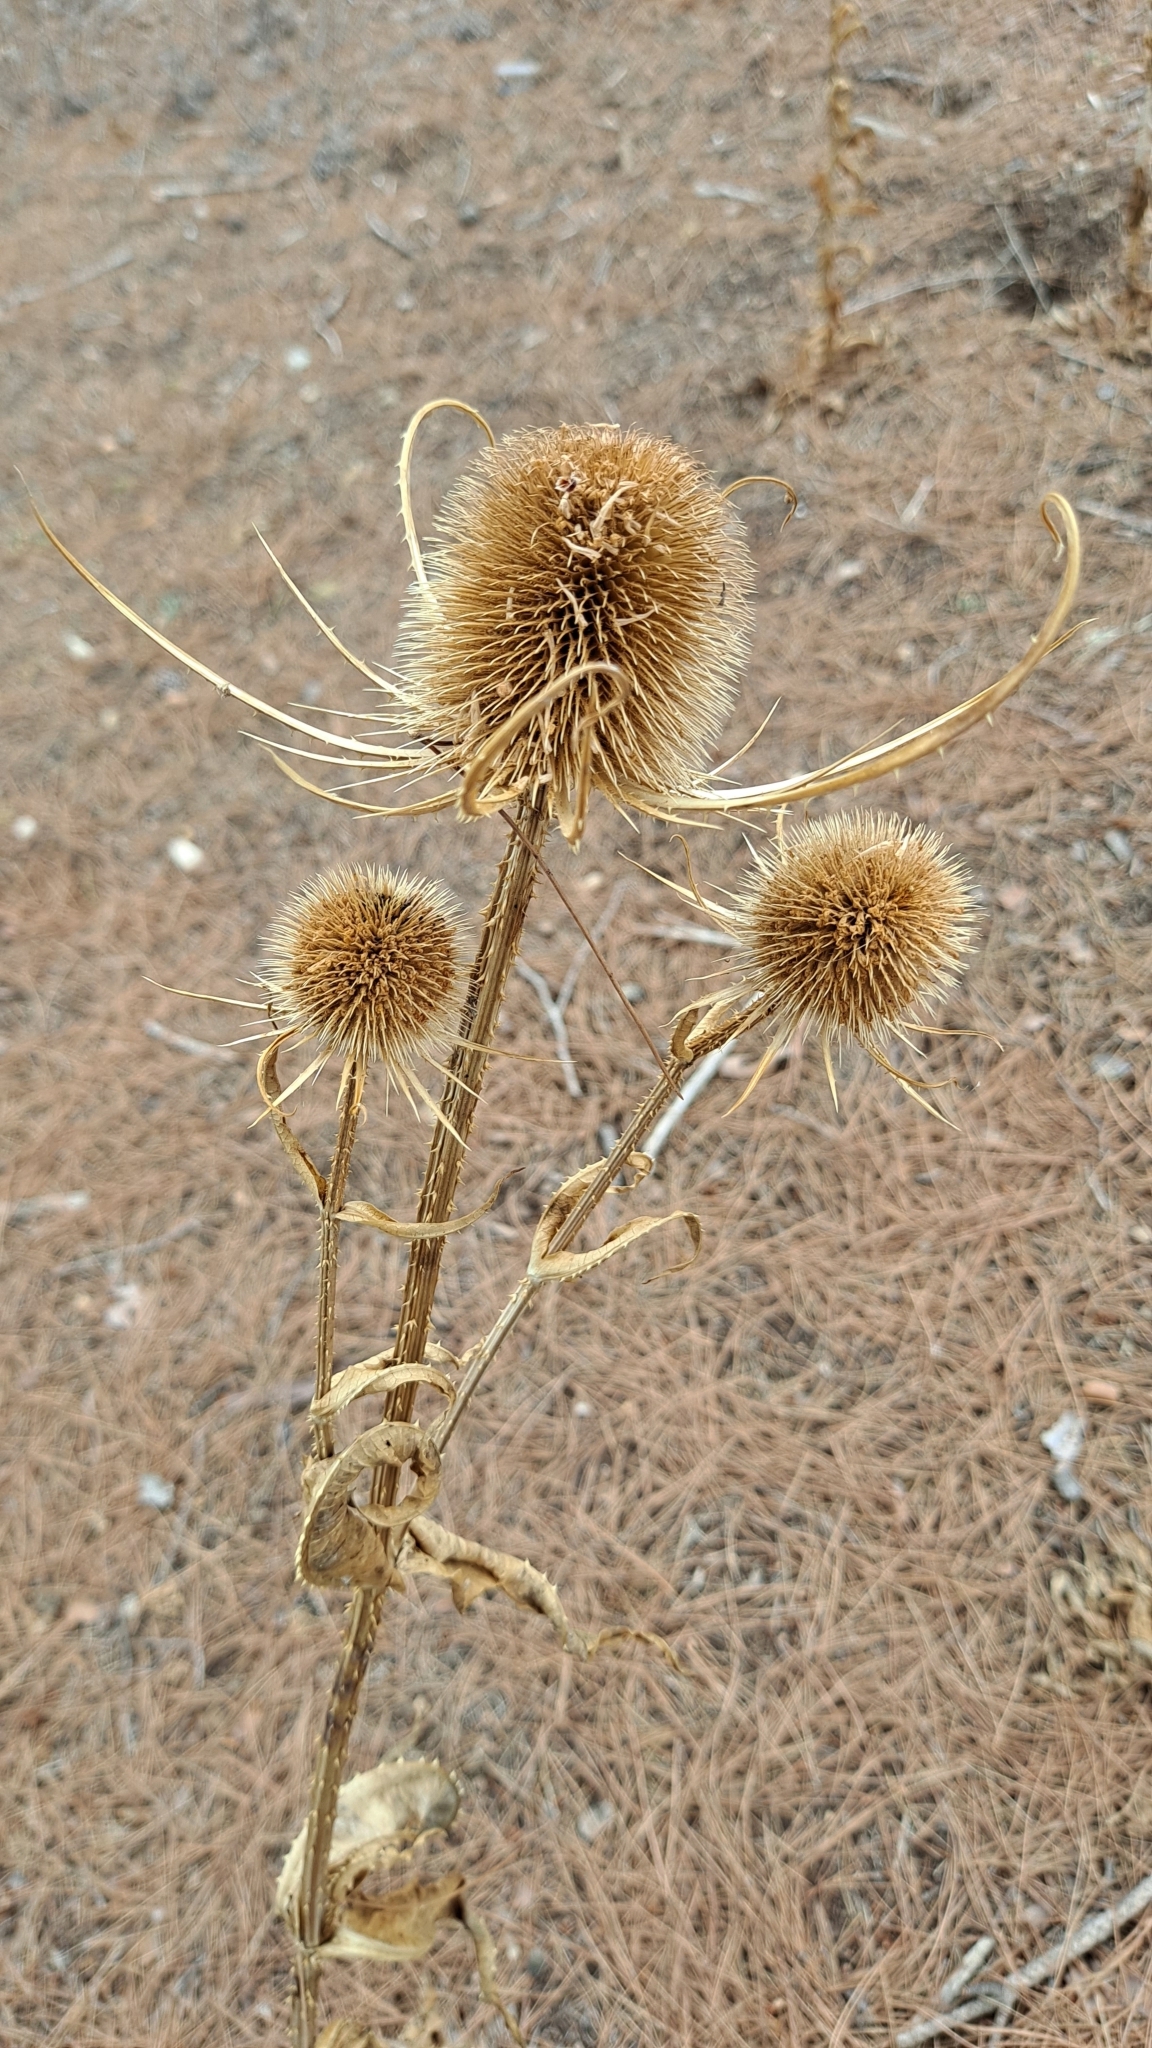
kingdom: Plantae
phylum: Tracheophyta
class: Magnoliopsida
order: Dipsacales
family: Caprifoliaceae
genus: Dipsacus
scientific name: Dipsacus fullonum
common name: Teasel
